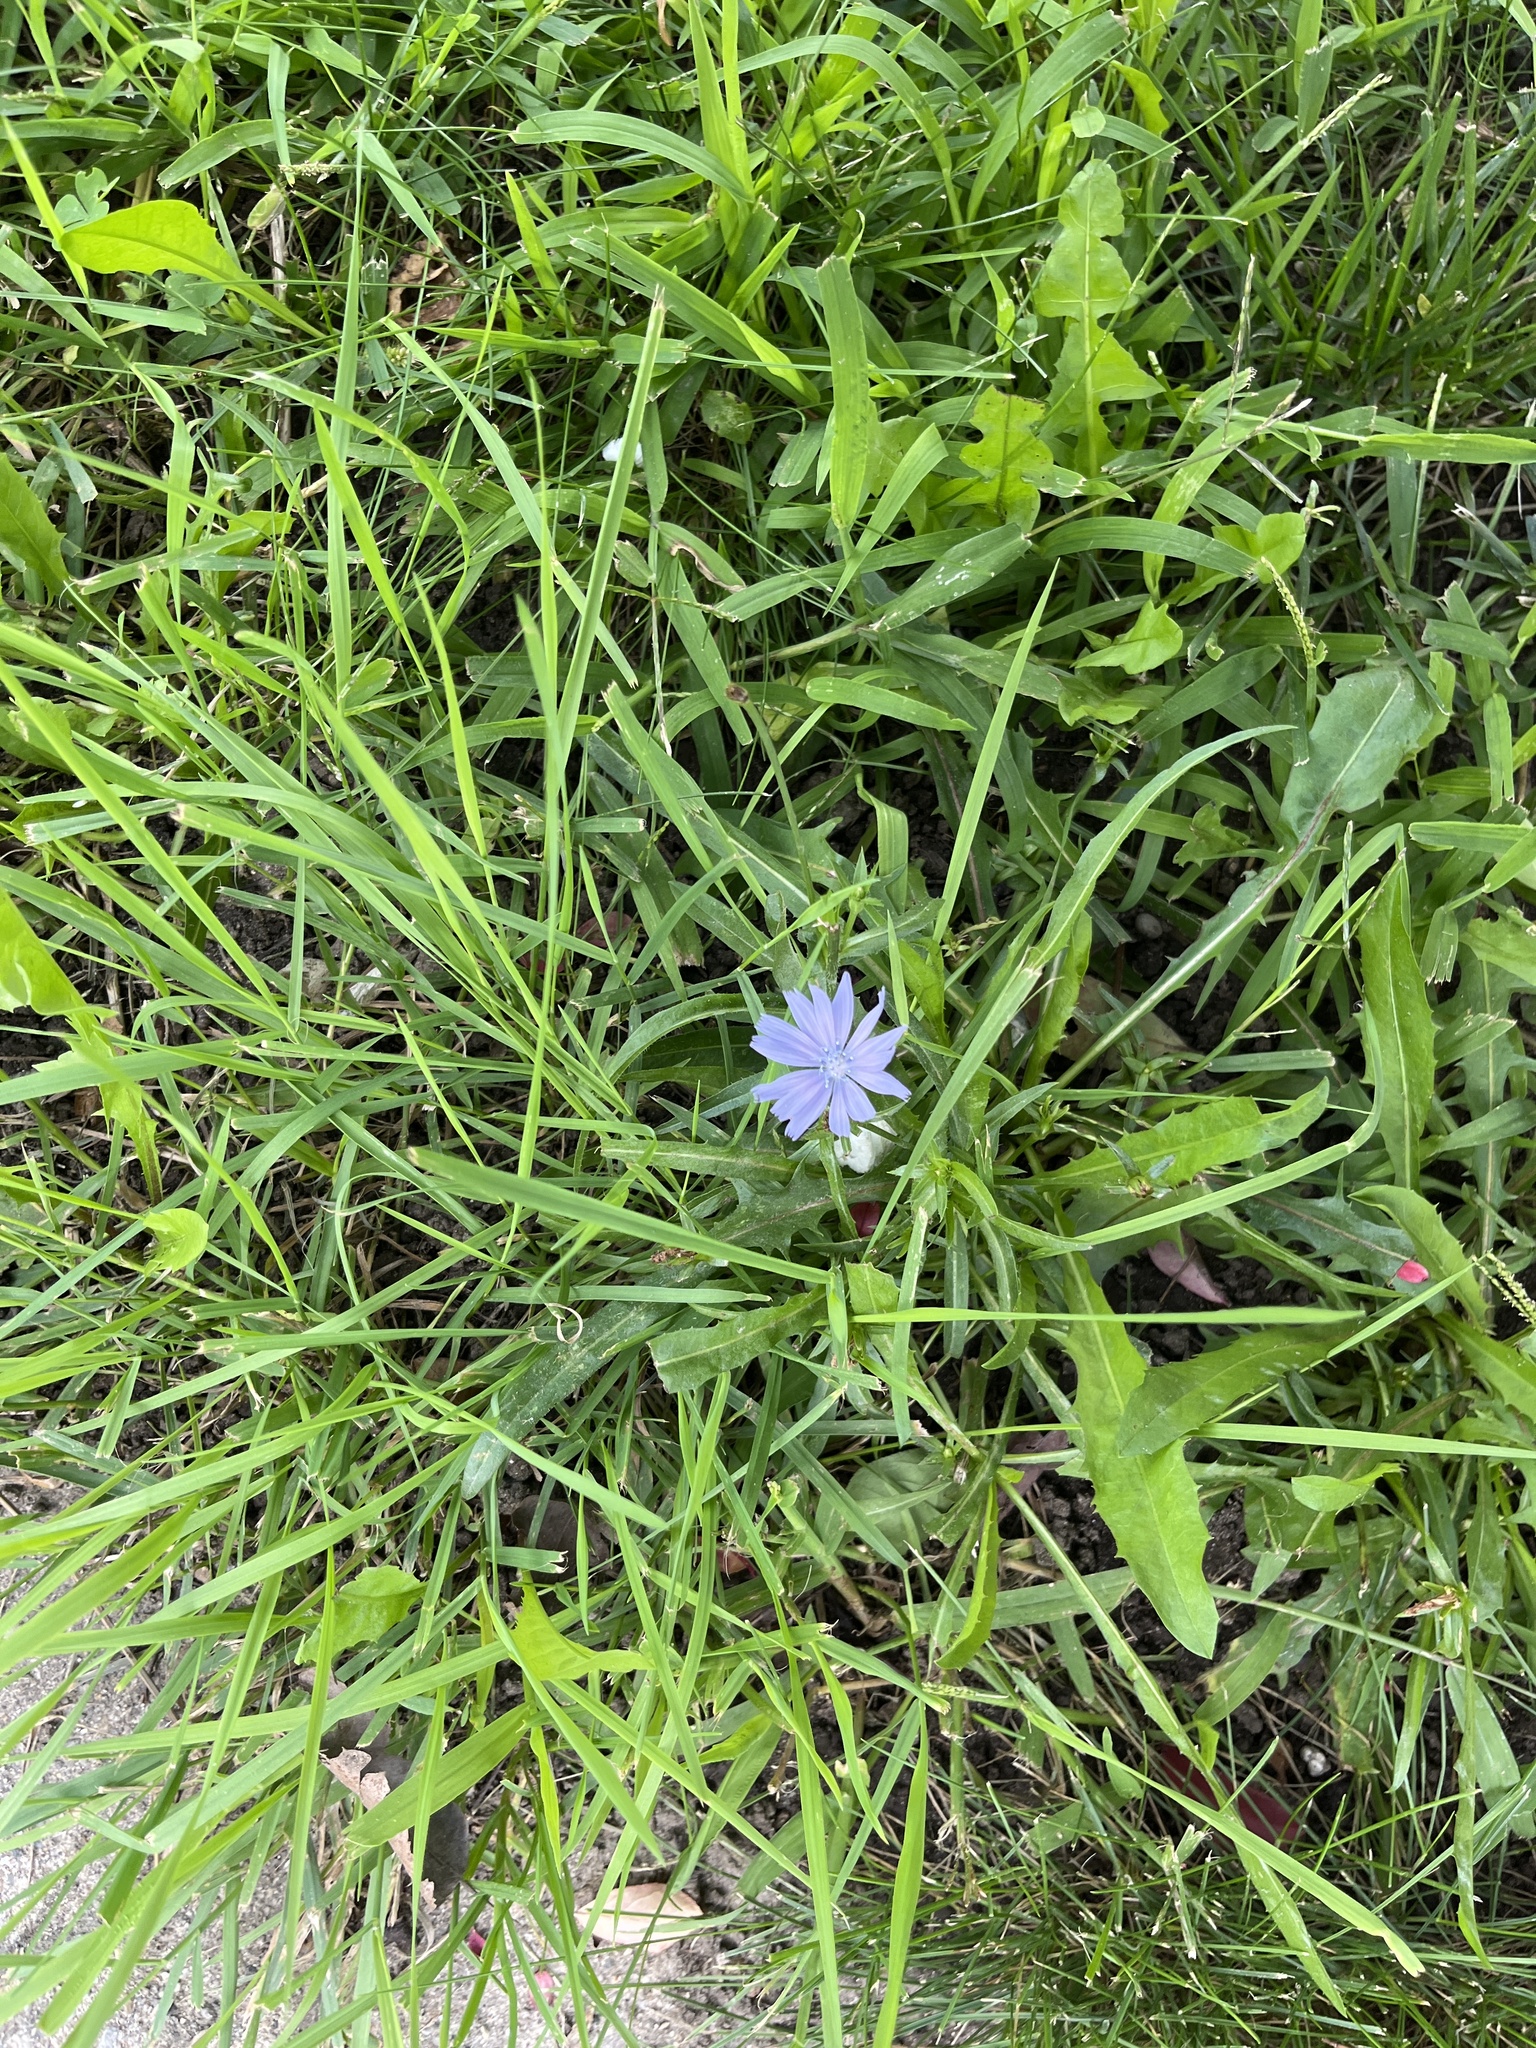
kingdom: Plantae
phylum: Tracheophyta
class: Magnoliopsida
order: Asterales
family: Asteraceae
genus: Cichorium
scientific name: Cichorium intybus
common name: Chicory
